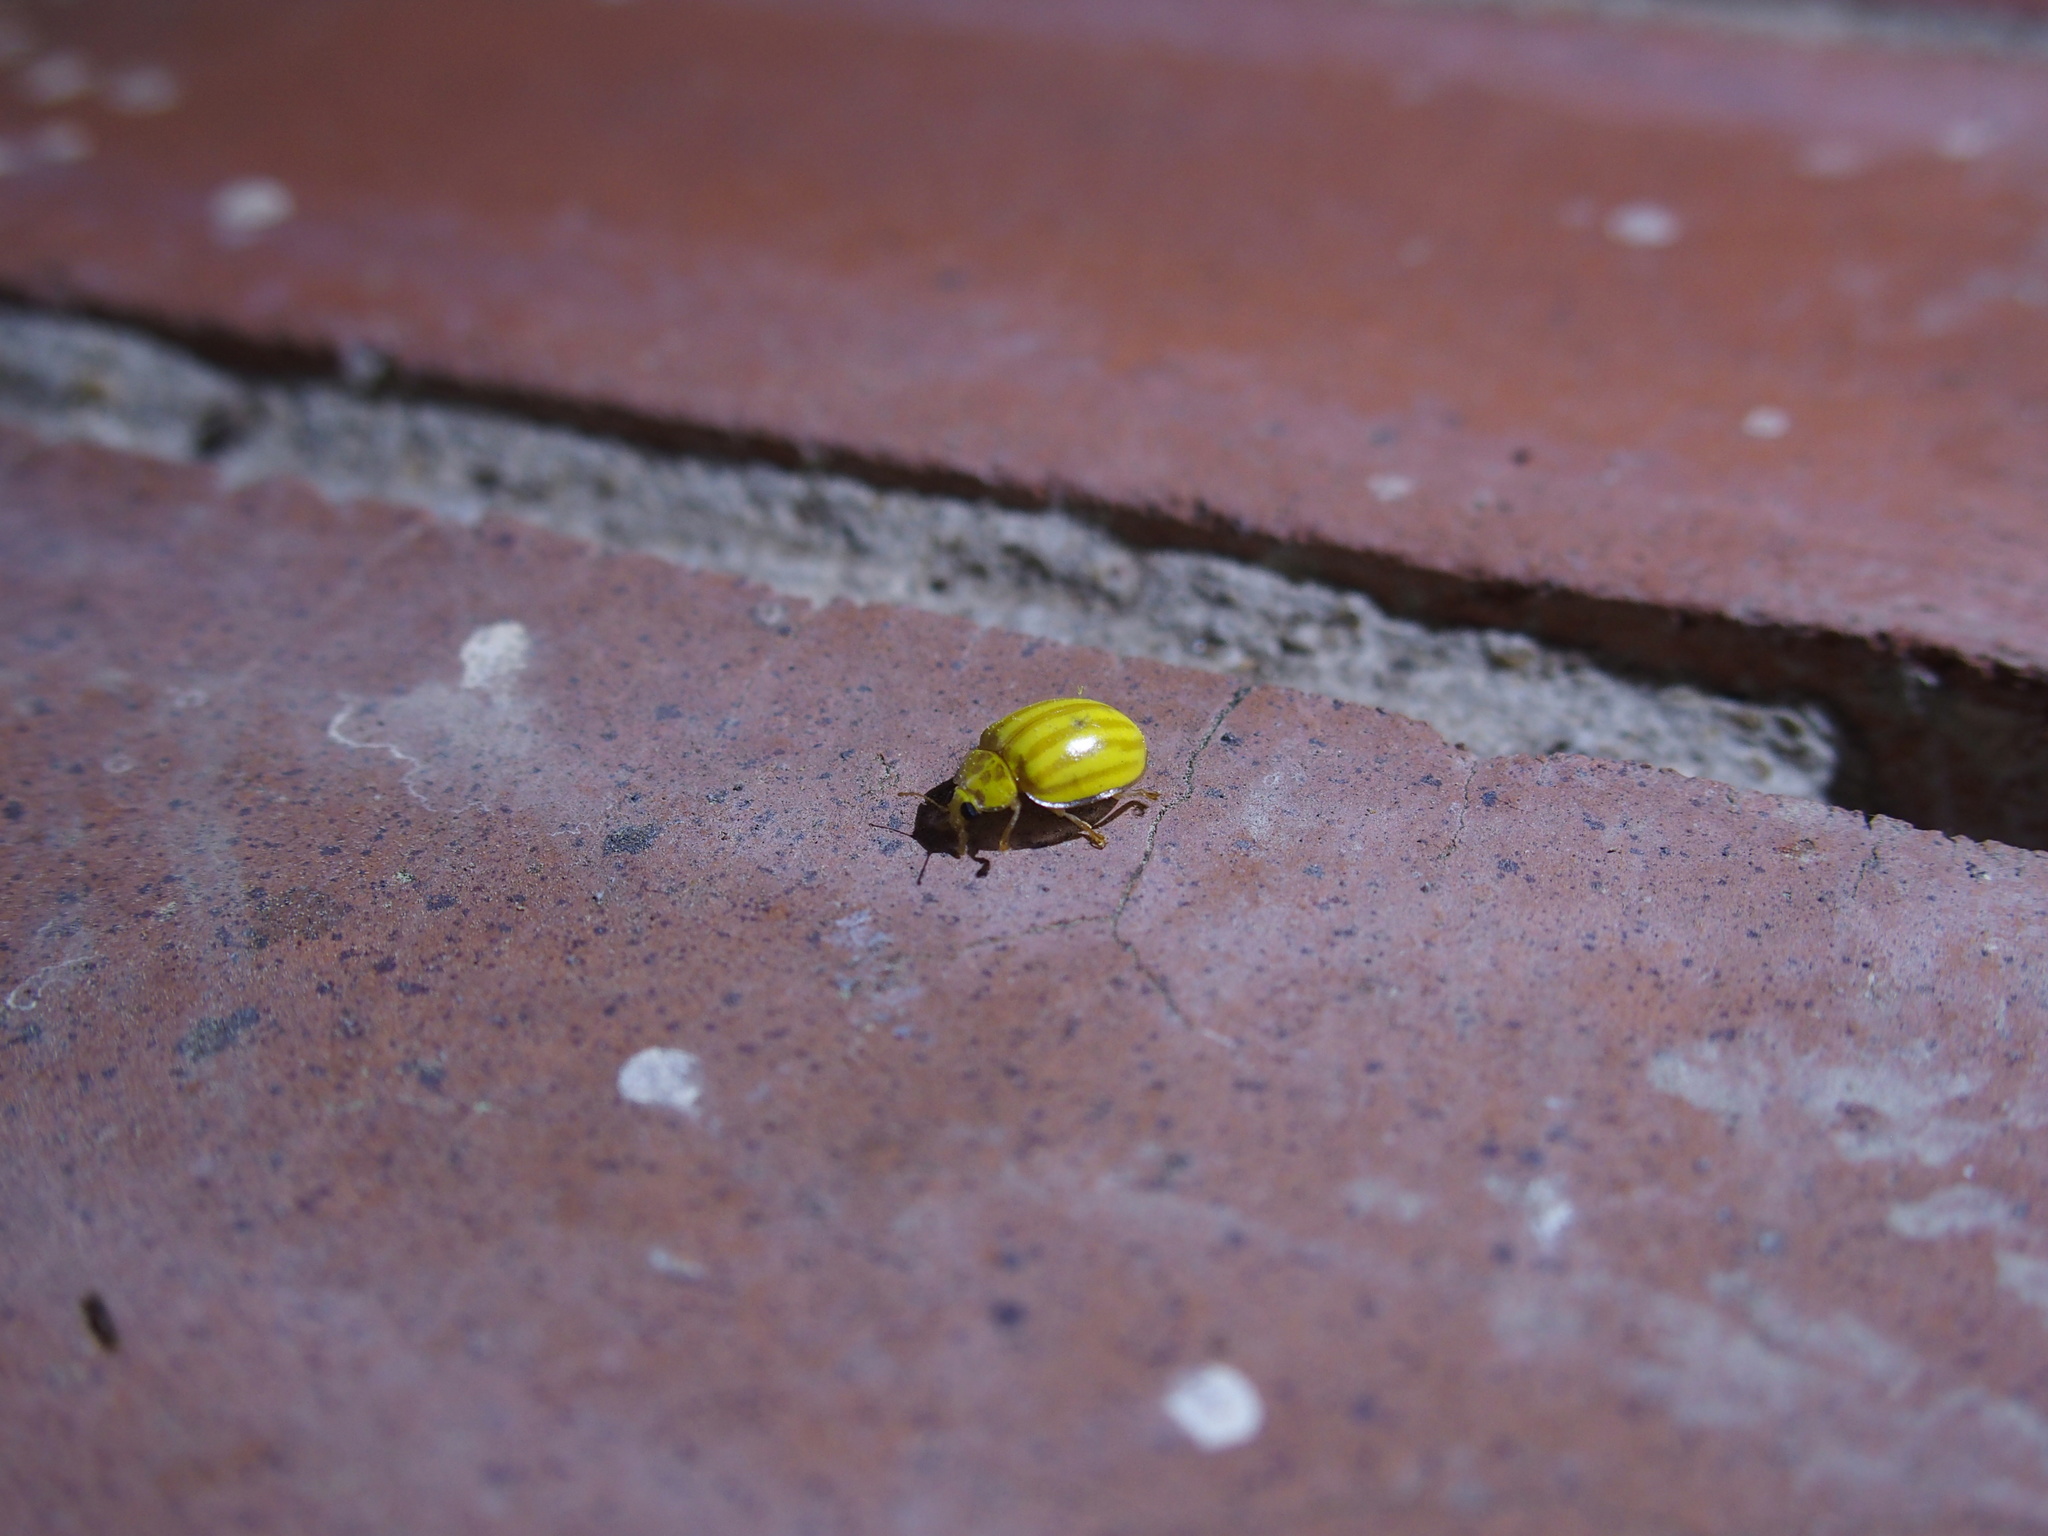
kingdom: Animalia
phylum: Arthropoda
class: Insecta
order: Coleoptera
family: Coccinellidae
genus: Macroilleis
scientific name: Macroilleis hauseri
